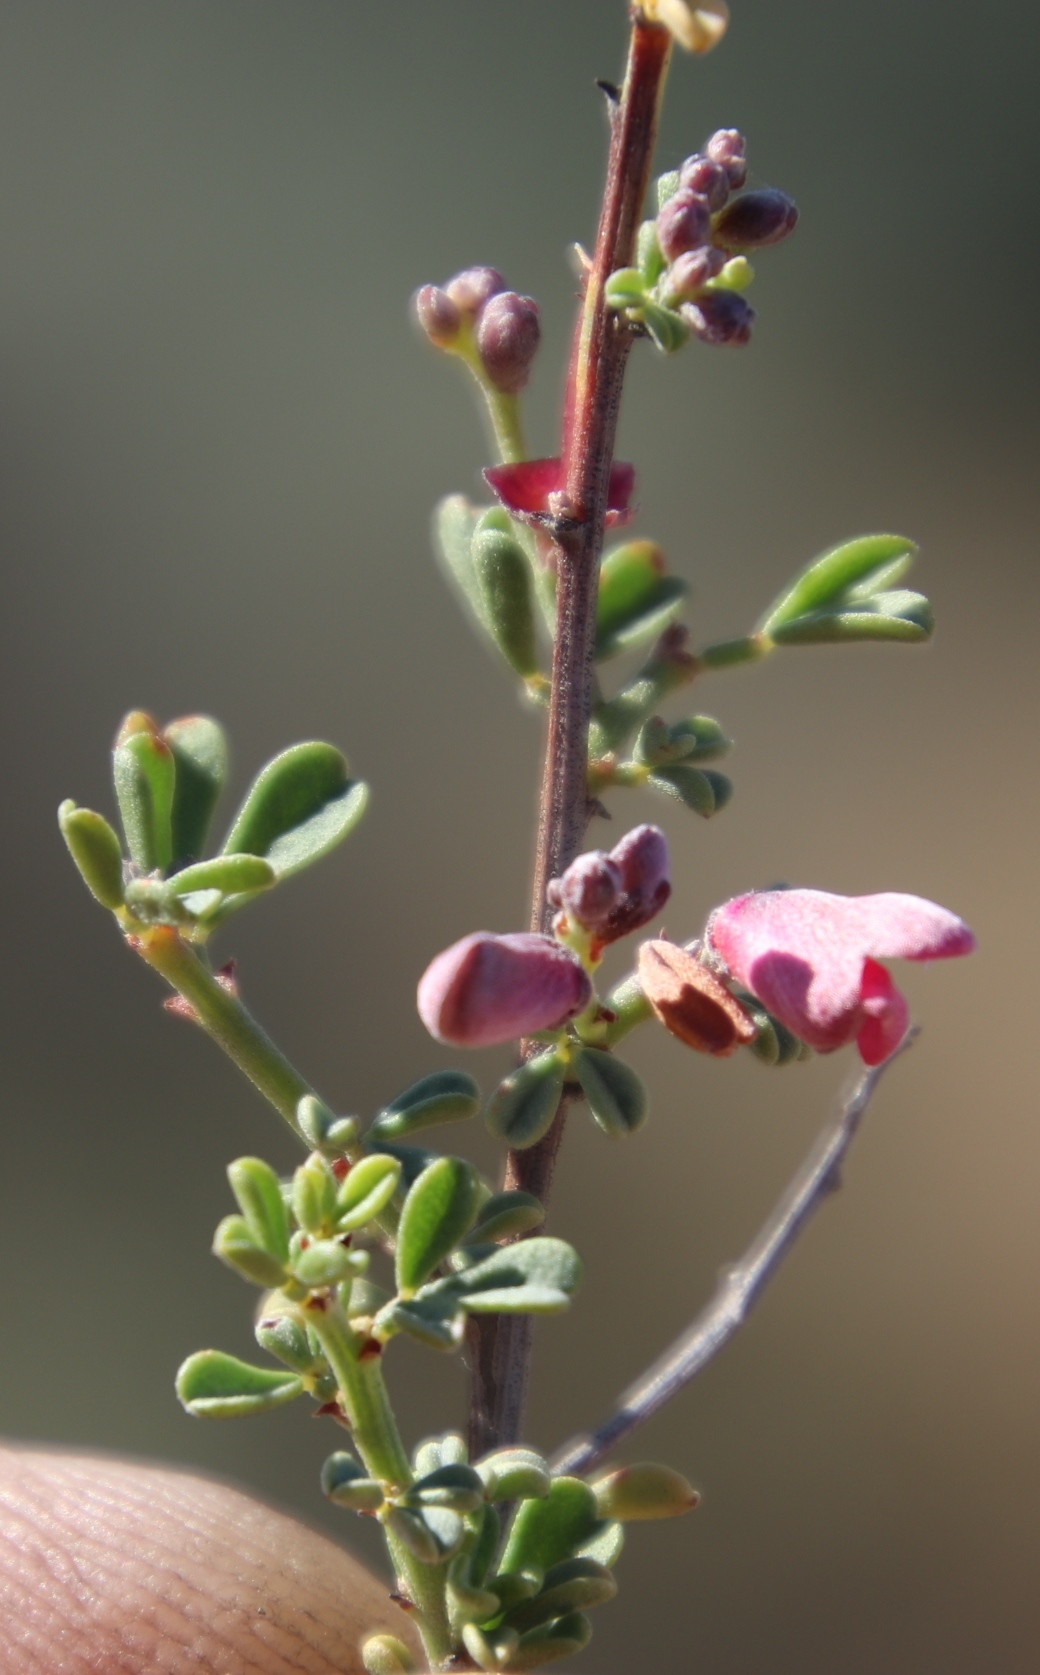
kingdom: Plantae
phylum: Tracheophyta
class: Magnoliopsida
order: Fabales
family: Fabaceae
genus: Indigofera
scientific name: Indigofera spinescens
